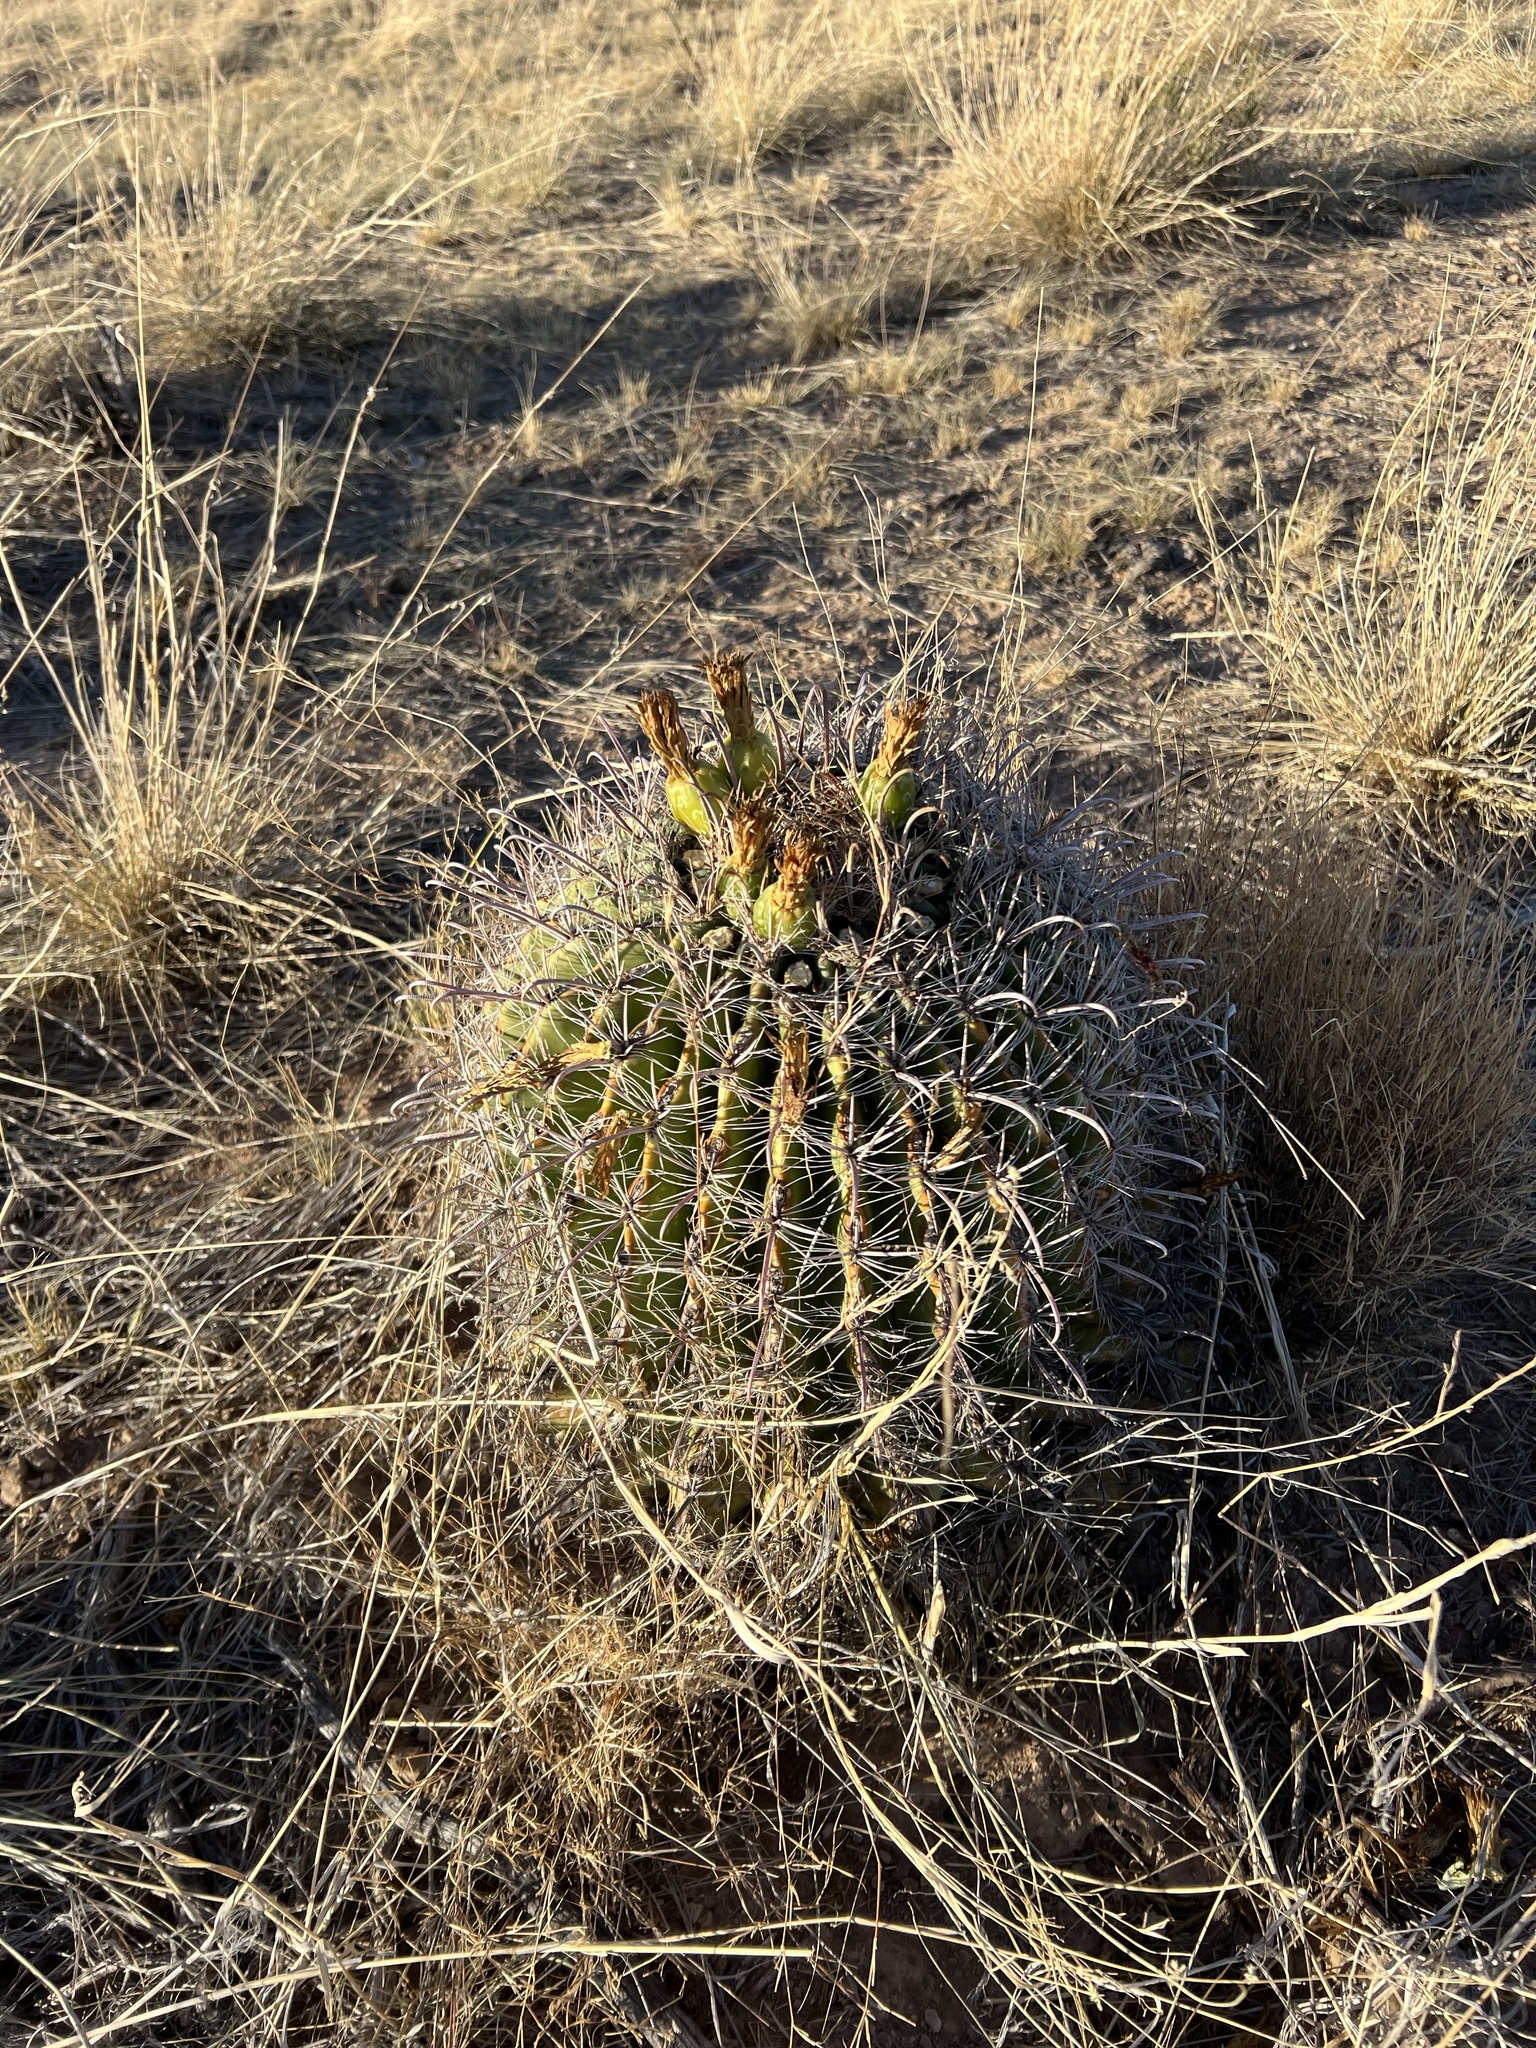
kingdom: Plantae
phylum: Tracheophyta
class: Magnoliopsida
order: Caryophyllales
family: Cactaceae
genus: Ferocactus
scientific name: Ferocactus wislizeni
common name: Candy barrel cactus
